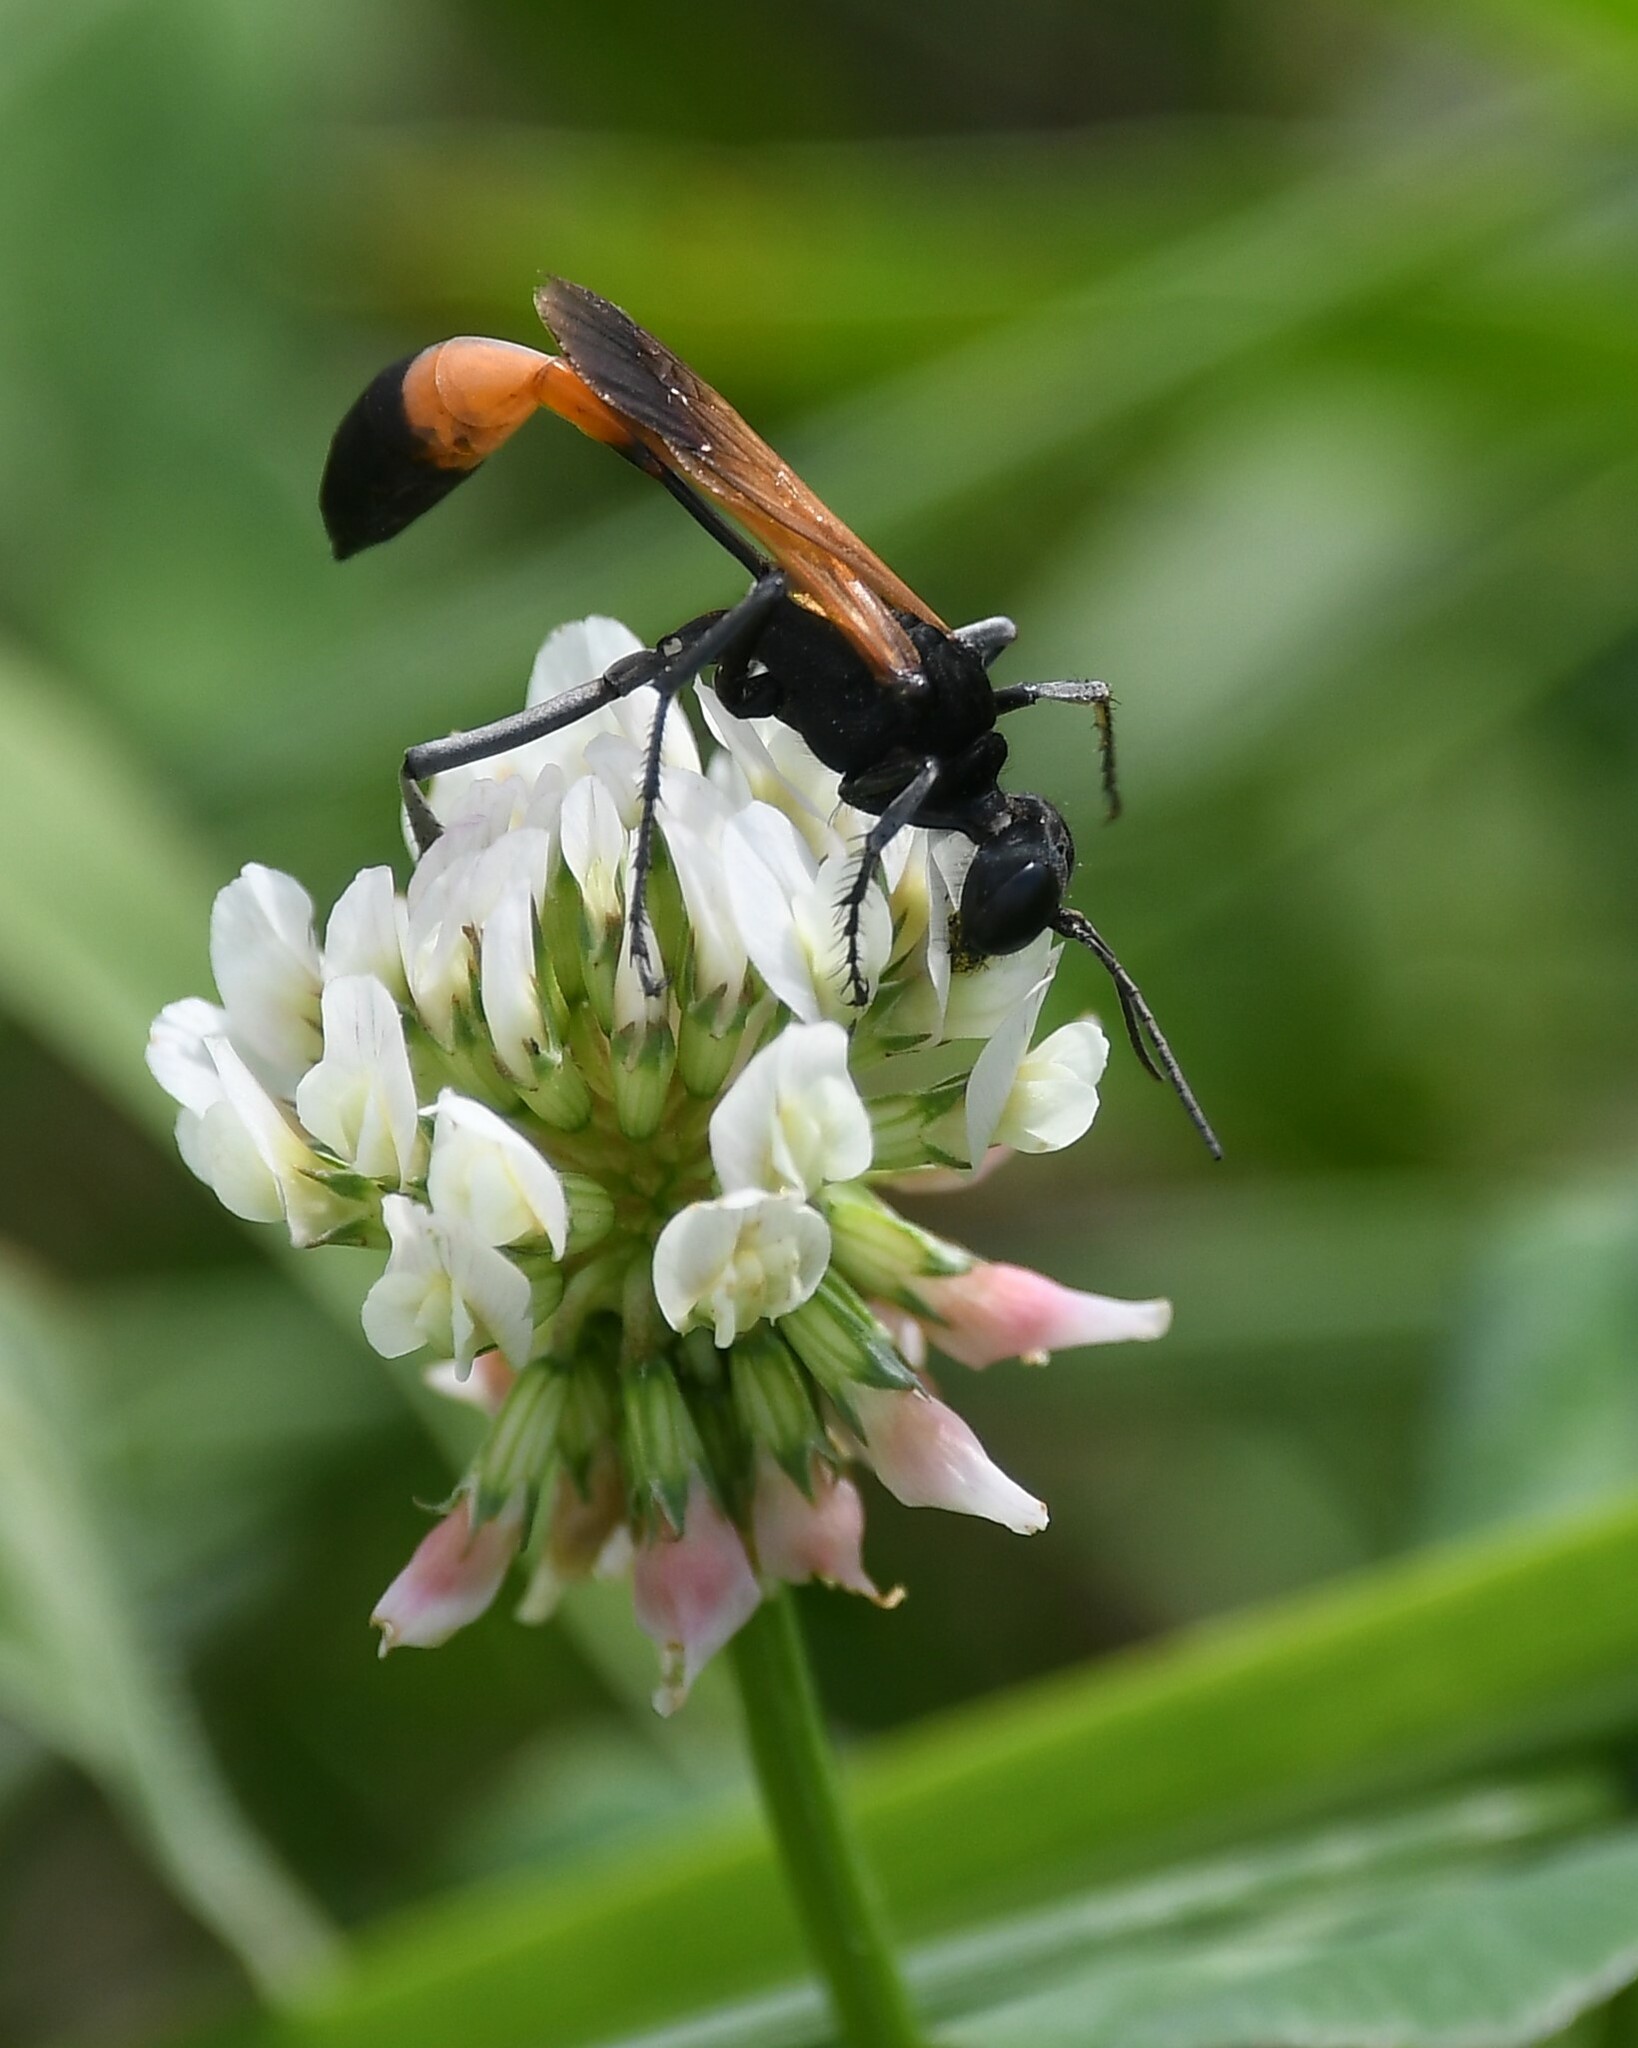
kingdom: Animalia
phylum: Arthropoda
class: Insecta
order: Hymenoptera
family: Sphecidae
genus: Ammophila
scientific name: Ammophila pictipennis
